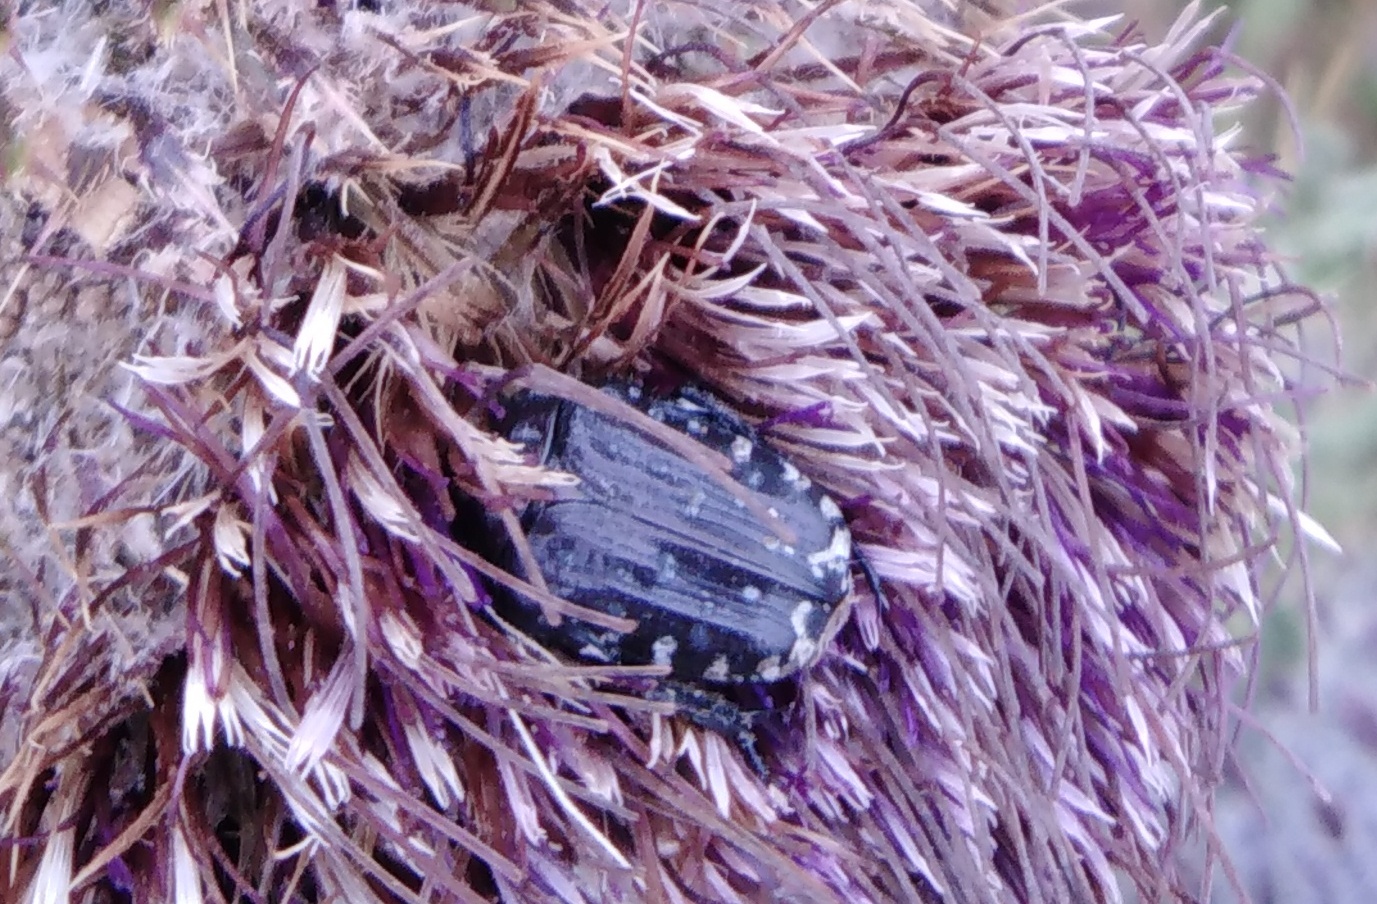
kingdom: Animalia
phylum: Arthropoda
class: Insecta
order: Coleoptera
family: Scarabaeidae
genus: Oxythyrea
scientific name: Oxythyrea funesta
